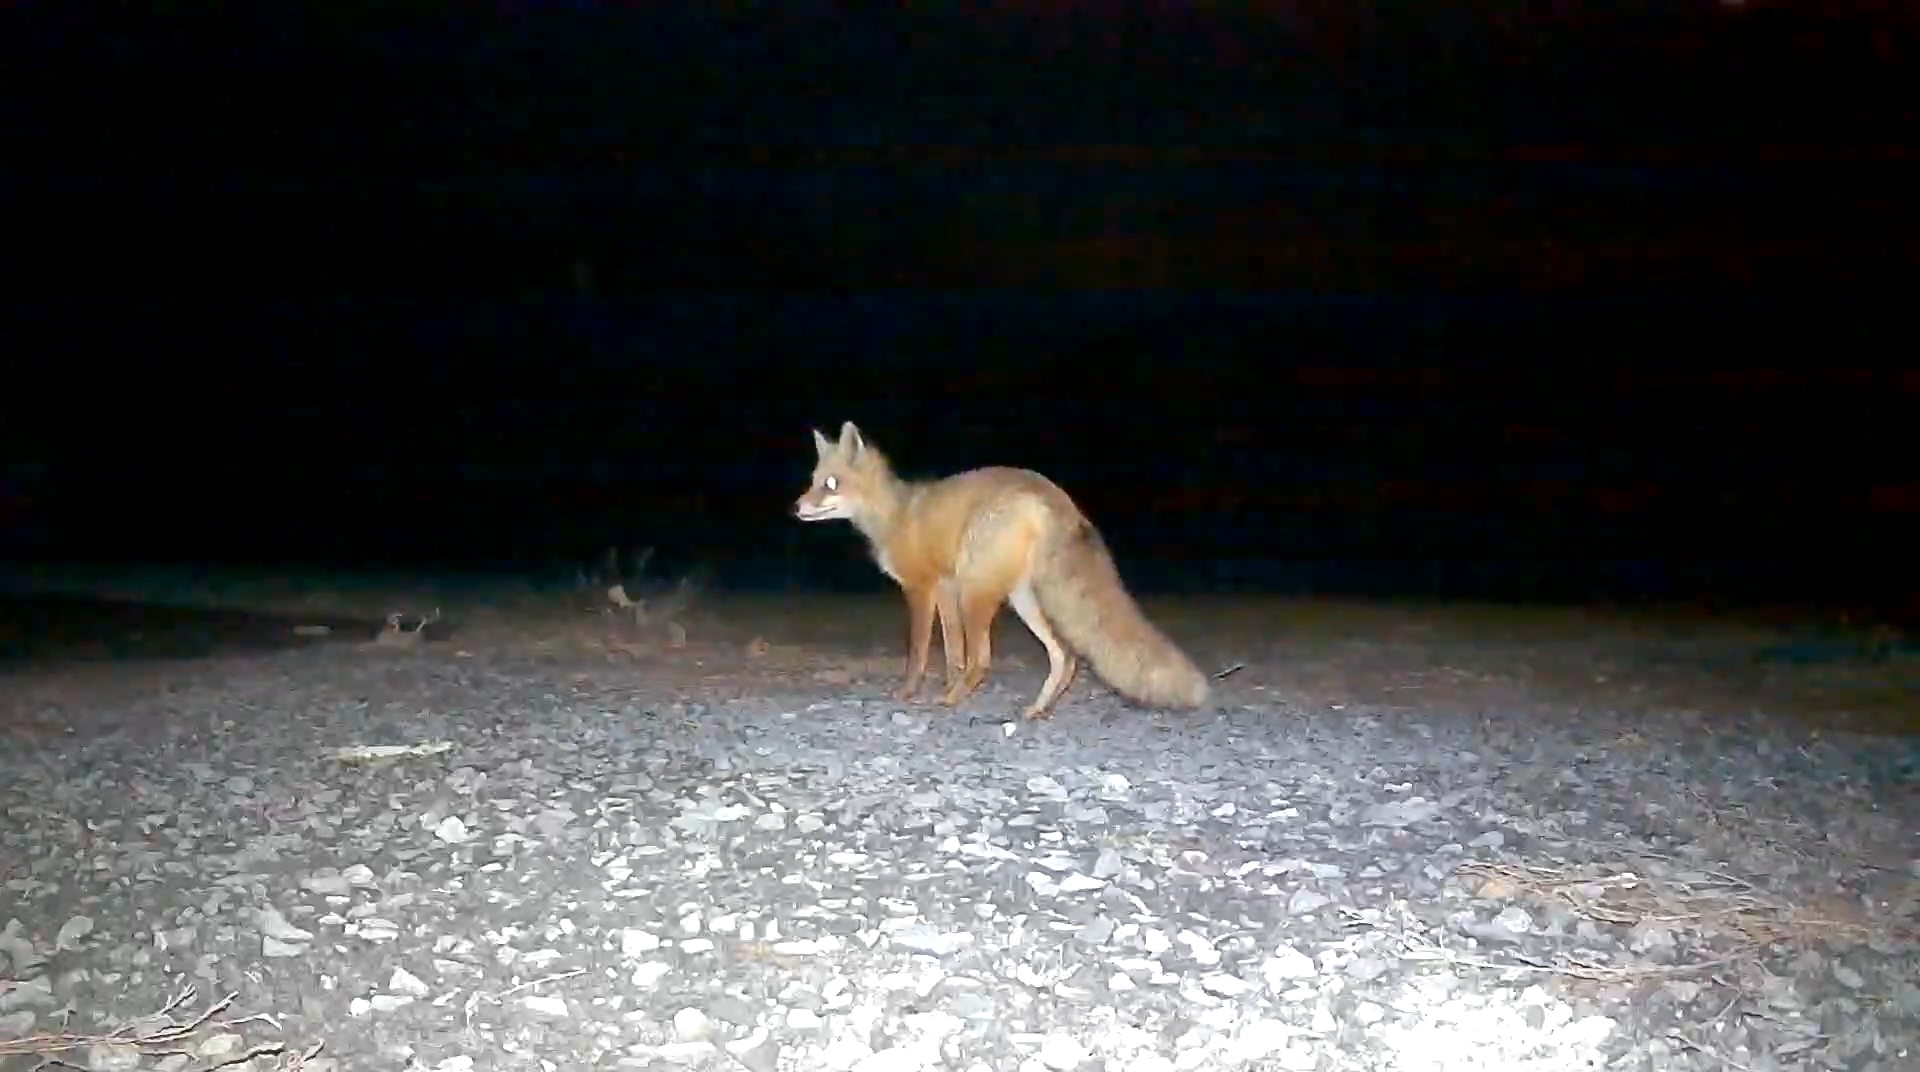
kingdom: Animalia
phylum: Chordata
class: Mammalia
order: Carnivora
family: Canidae
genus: Vulpes
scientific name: Vulpes vulpes
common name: Red fox
